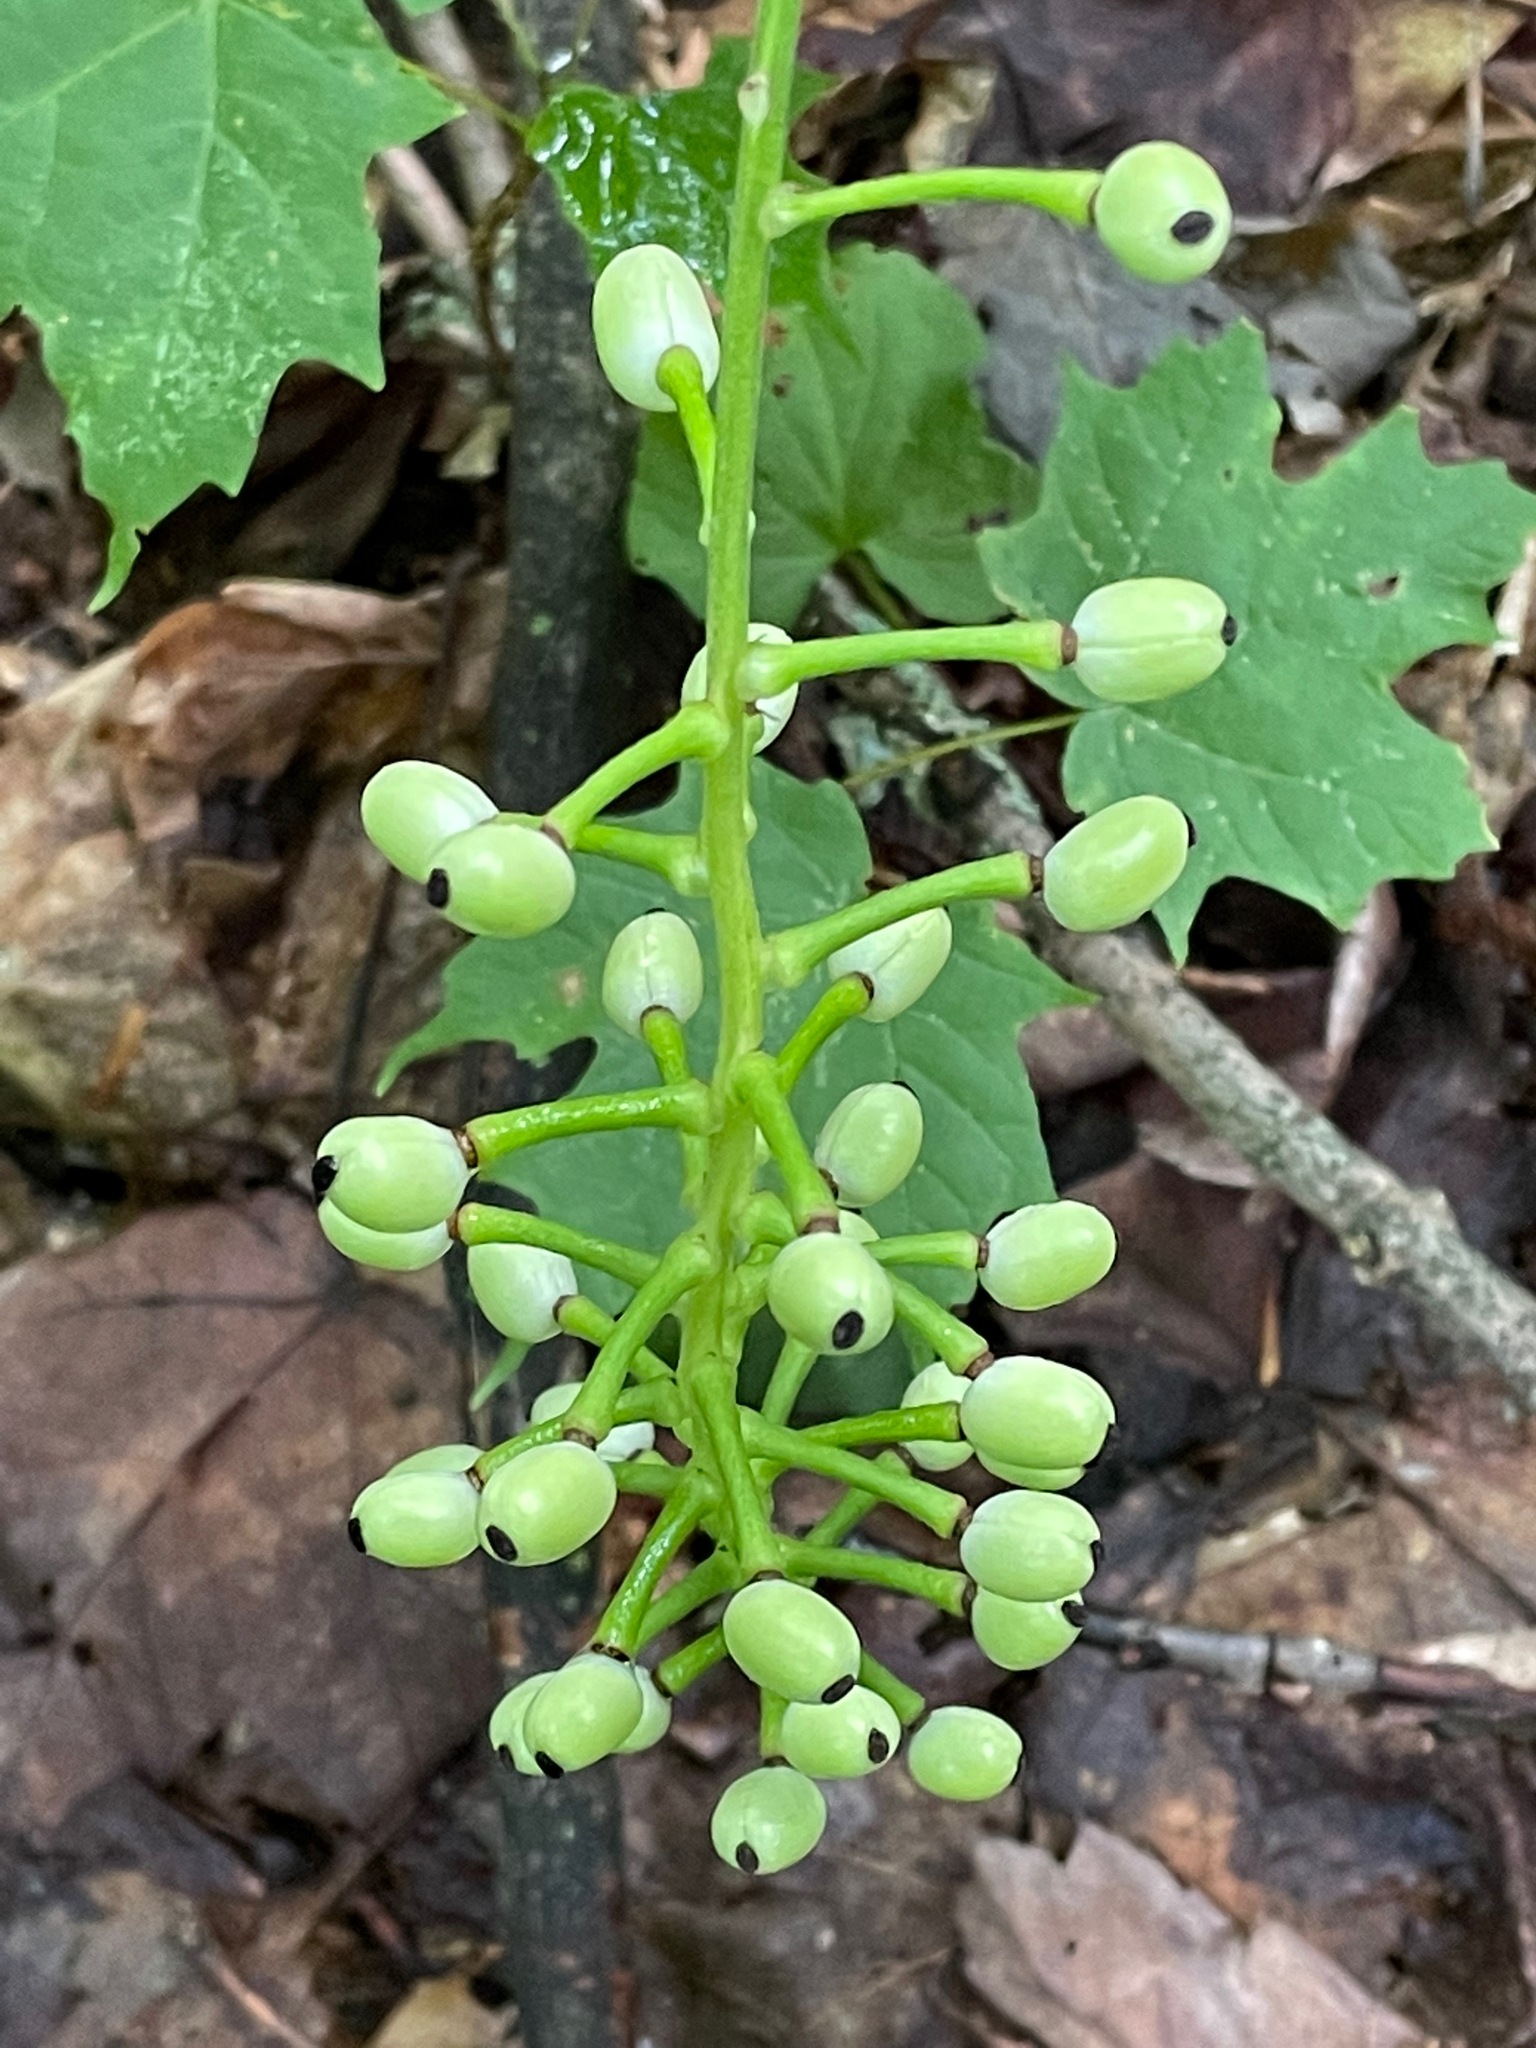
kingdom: Plantae
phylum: Tracheophyta
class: Magnoliopsida
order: Ranunculales
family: Ranunculaceae
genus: Actaea
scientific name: Actaea pachypoda
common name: Doll's-eyes
